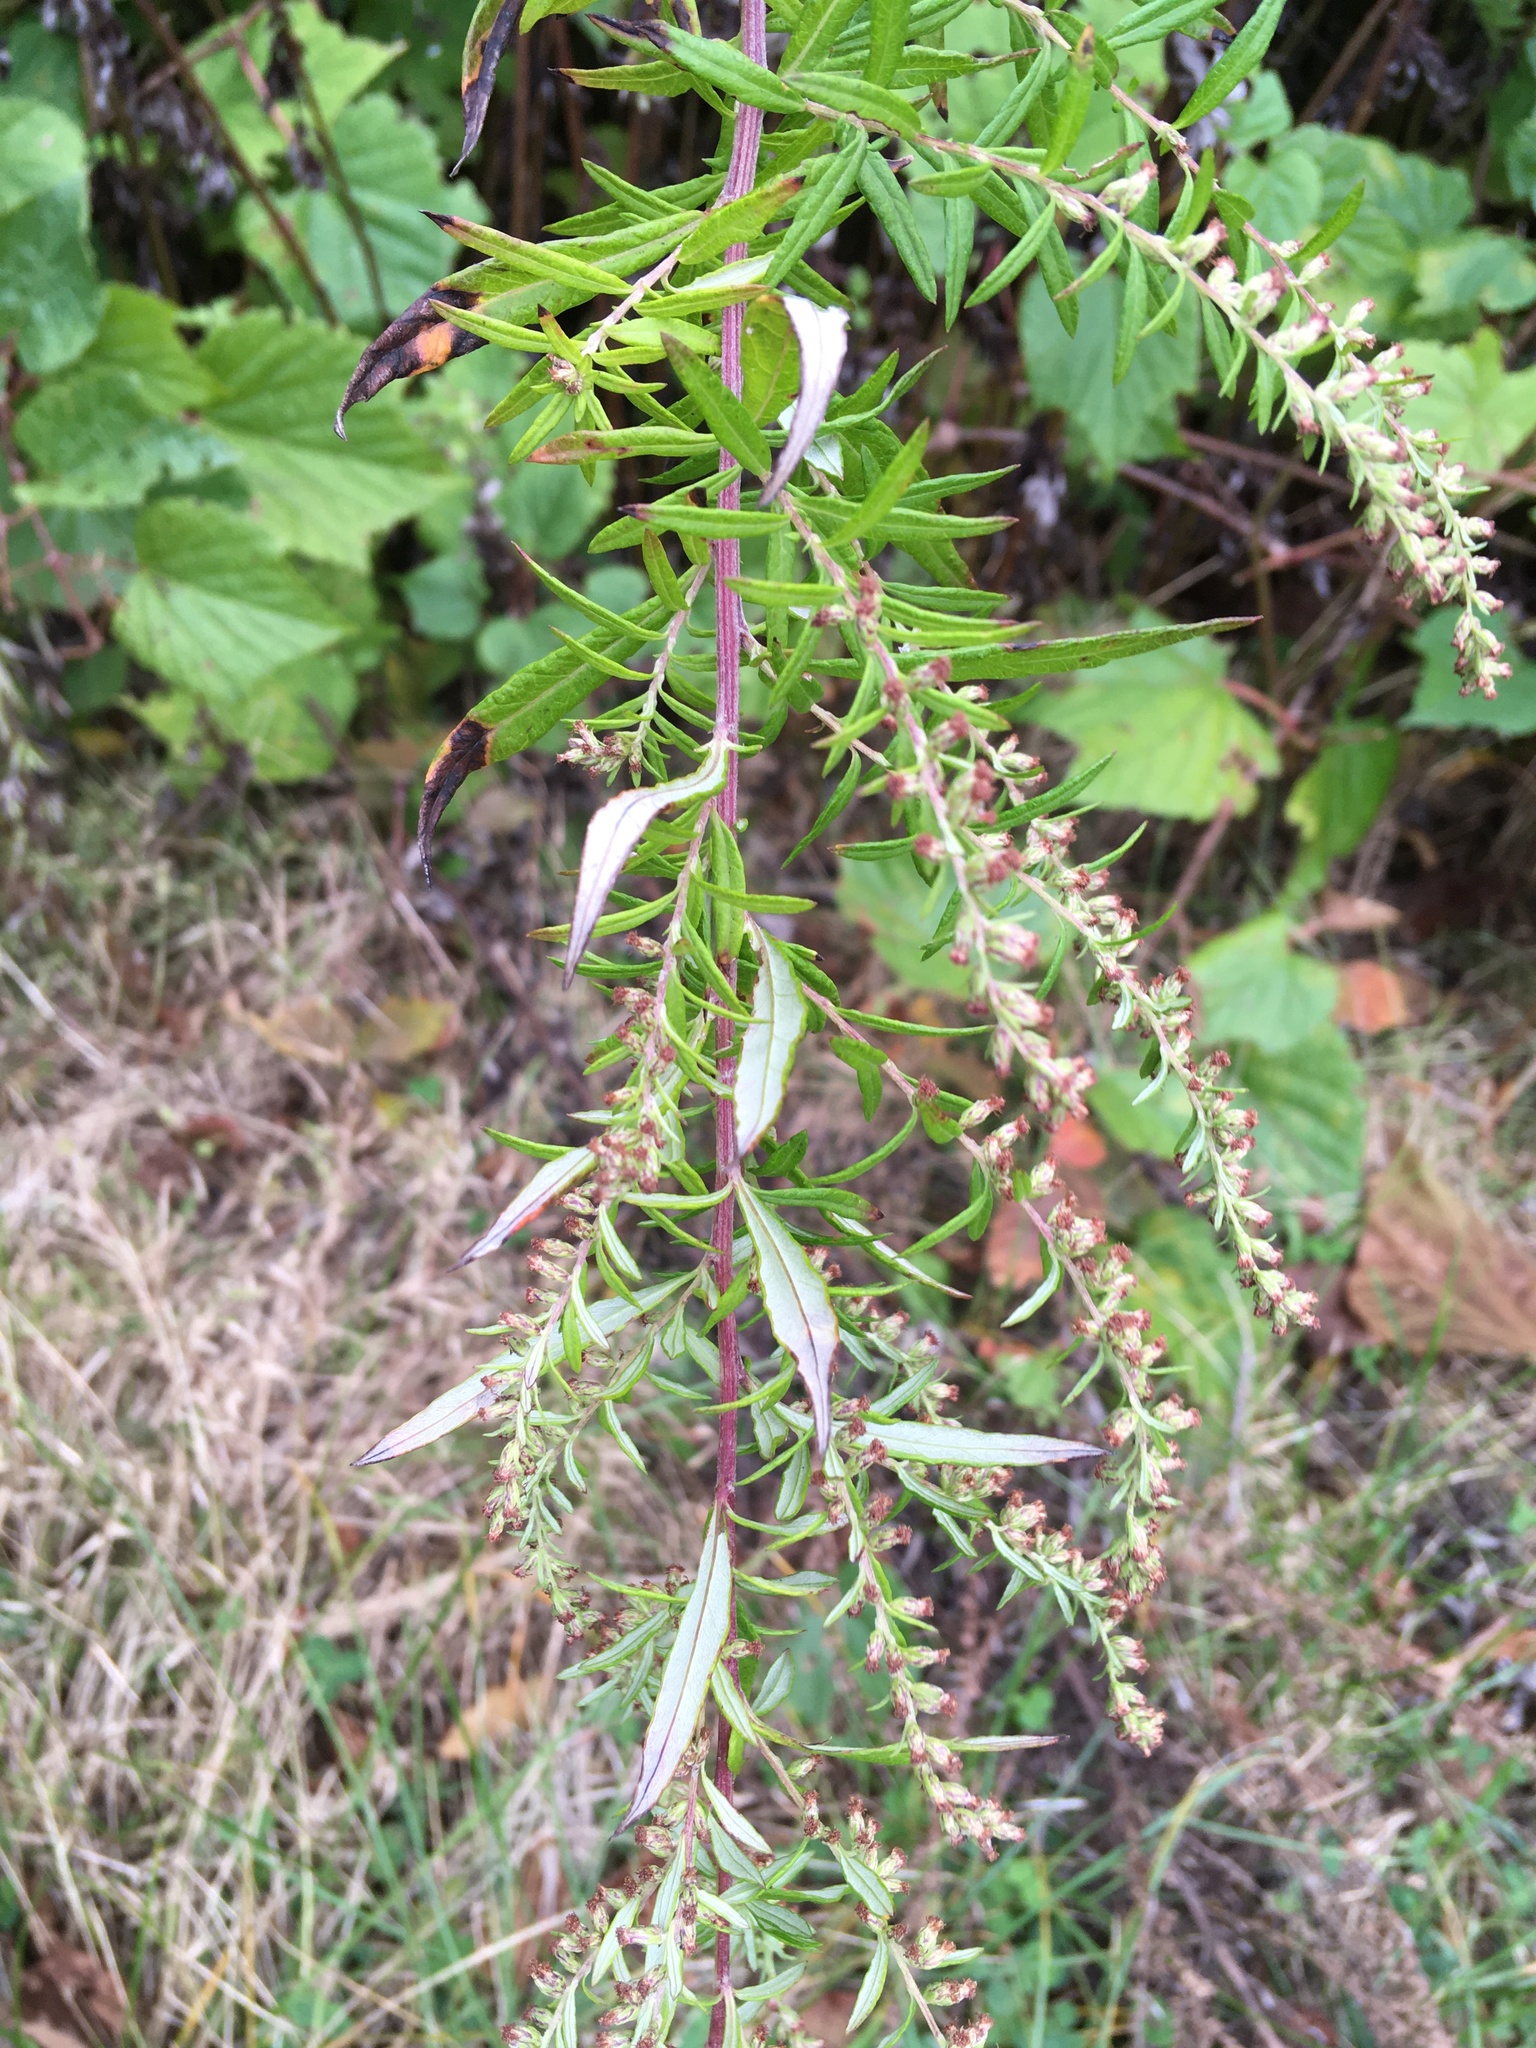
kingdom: Plantae
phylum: Tracheophyta
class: Magnoliopsida
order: Asterales
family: Asteraceae
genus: Artemisia
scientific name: Artemisia vulgaris
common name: Mugwort
